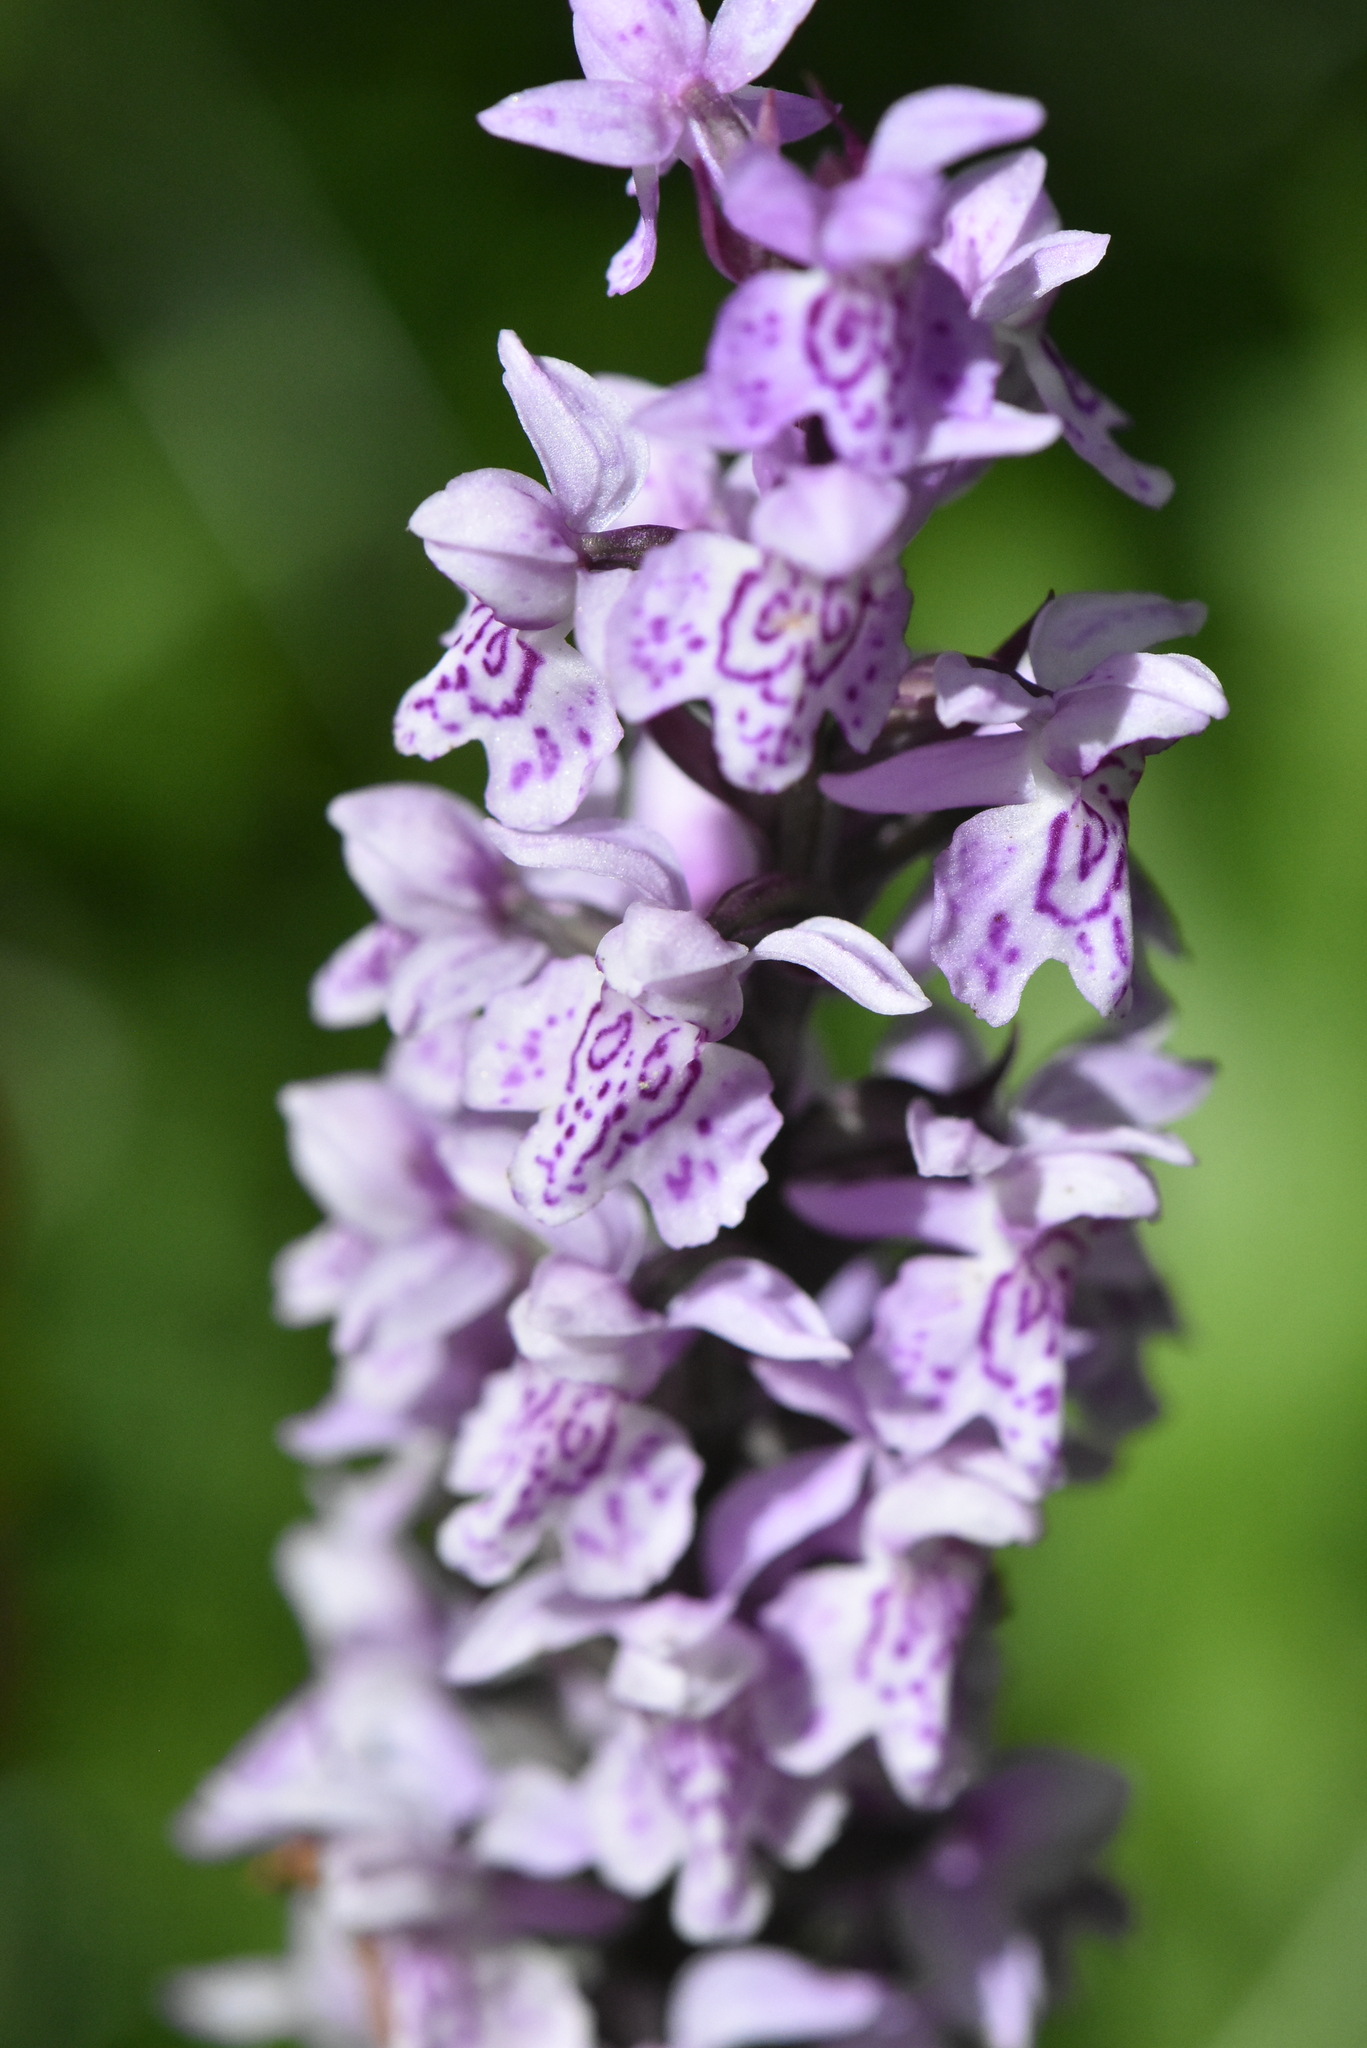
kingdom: Plantae
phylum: Tracheophyta
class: Liliopsida
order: Asparagales
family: Orchidaceae
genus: Dactylorhiza
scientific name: Dactylorhiza maculata
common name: Heath spotted-orchid
